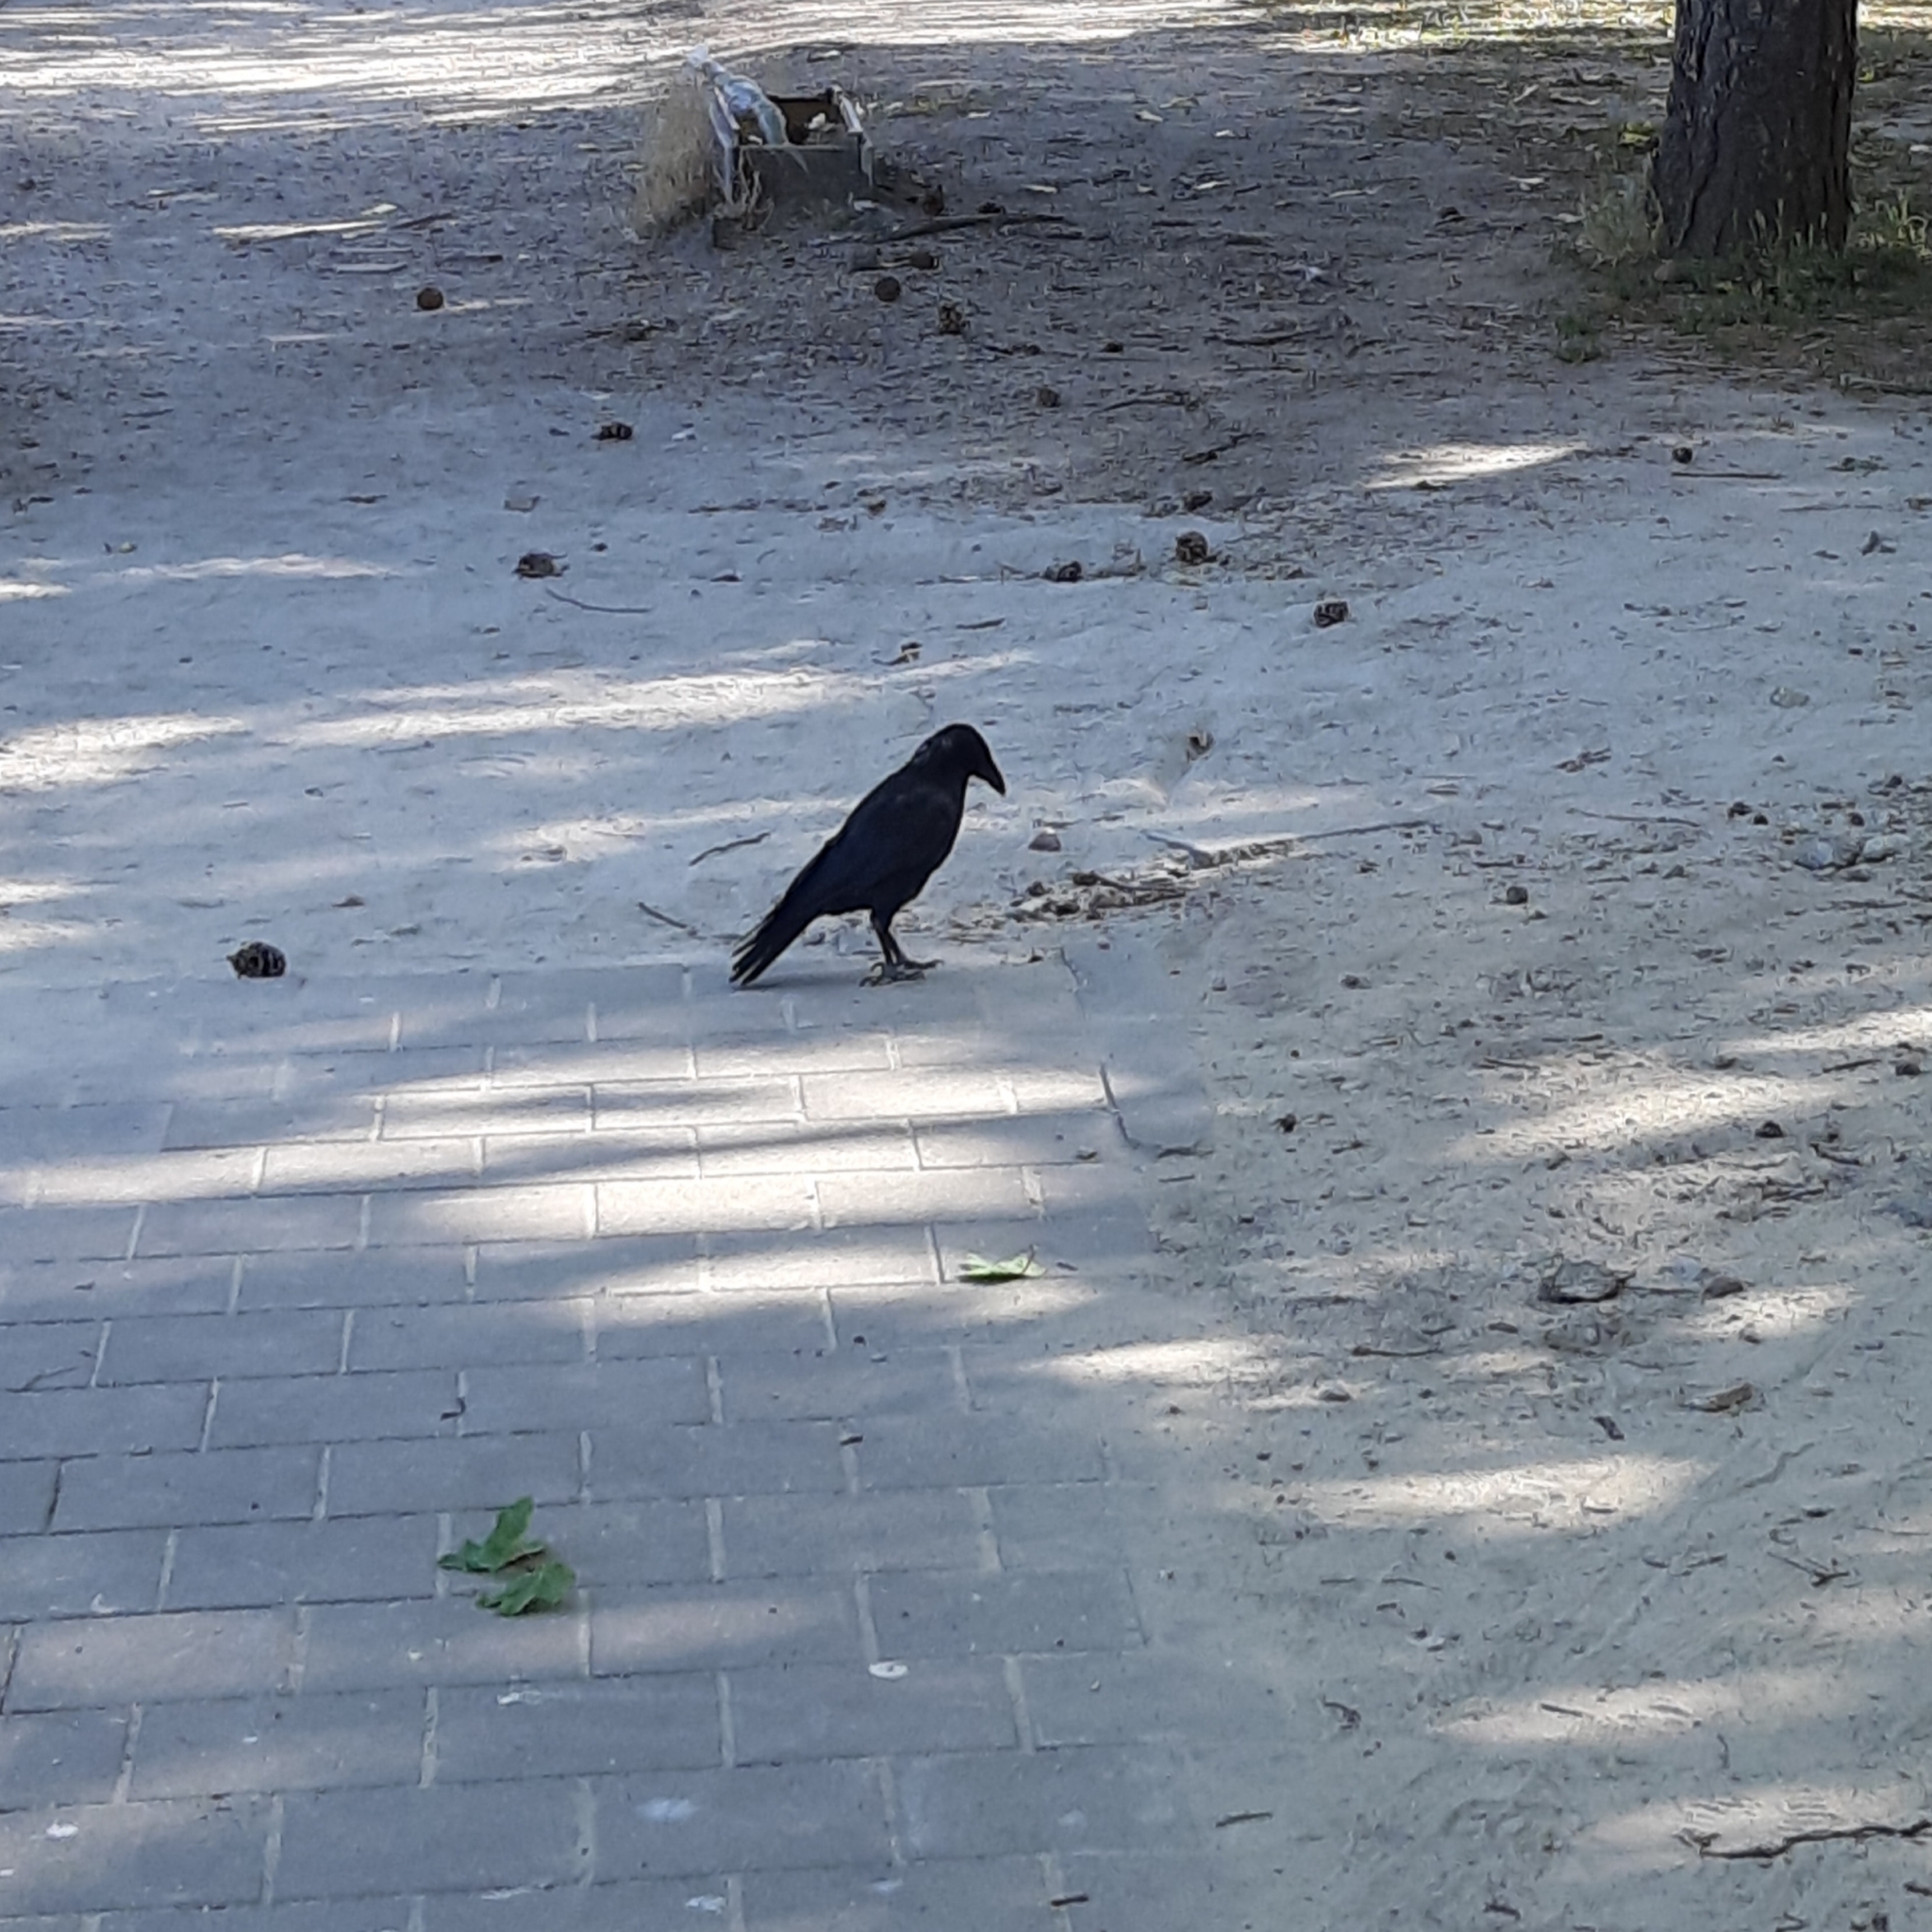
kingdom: Animalia
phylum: Chordata
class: Aves
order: Passeriformes
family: Corvidae
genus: Corvus
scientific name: Corvus corone
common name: Carrion crow
